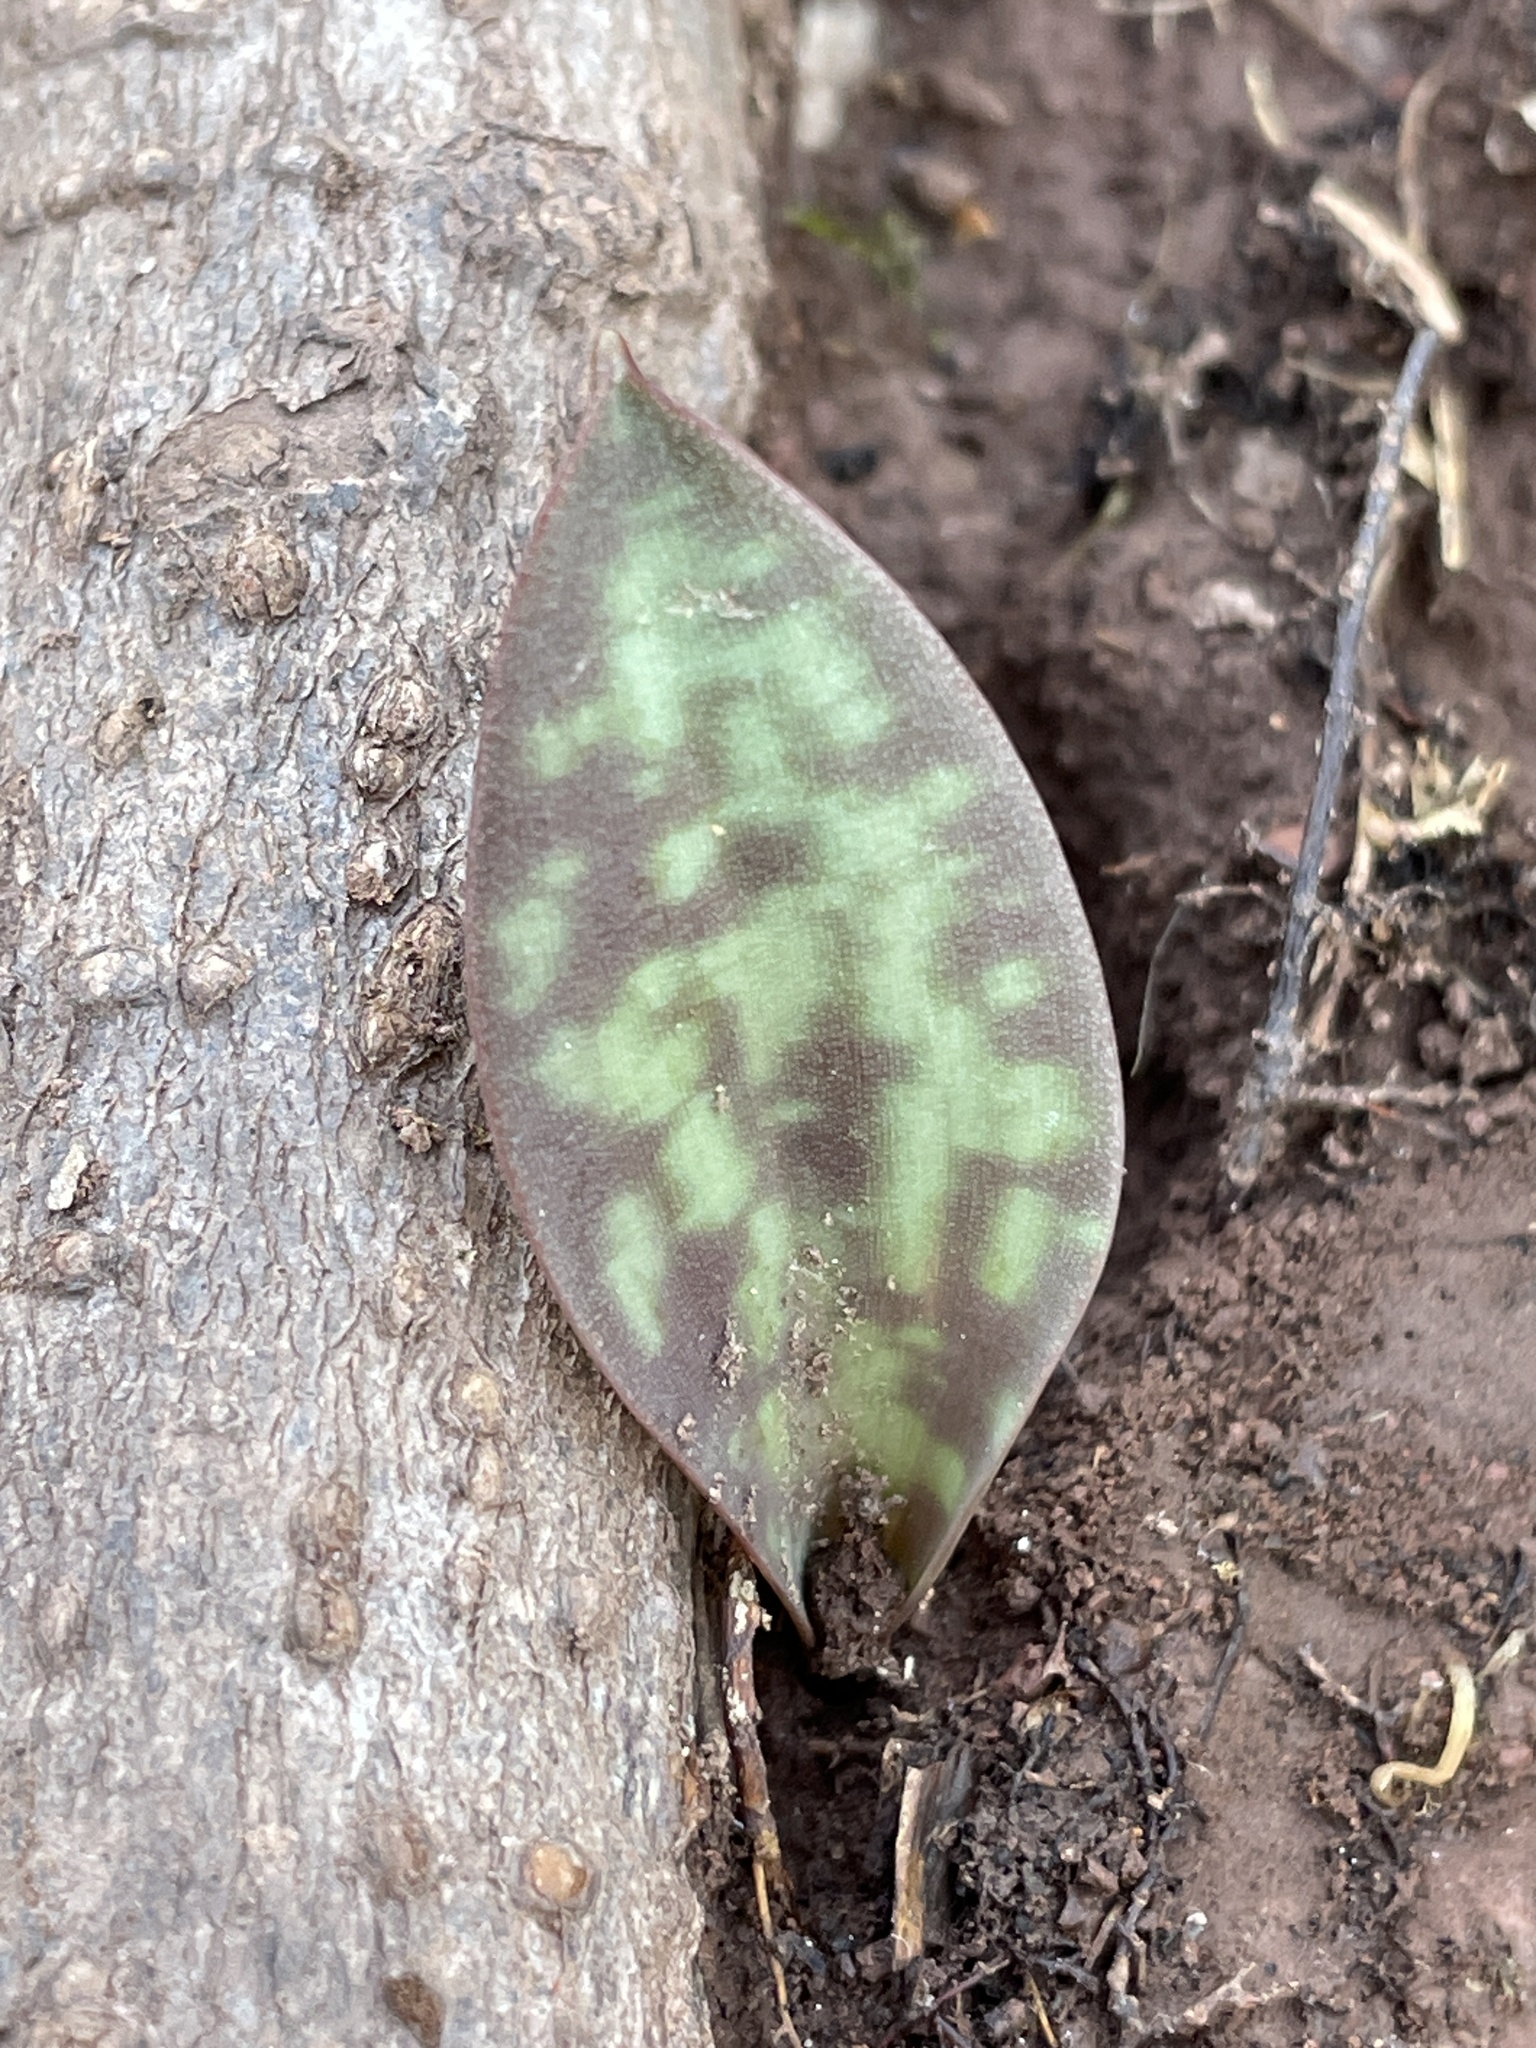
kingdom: Plantae
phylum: Tracheophyta
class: Liliopsida
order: Liliales
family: Liliaceae
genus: Erythronium
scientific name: Erythronium americanum
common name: Yellow adder's-tongue
